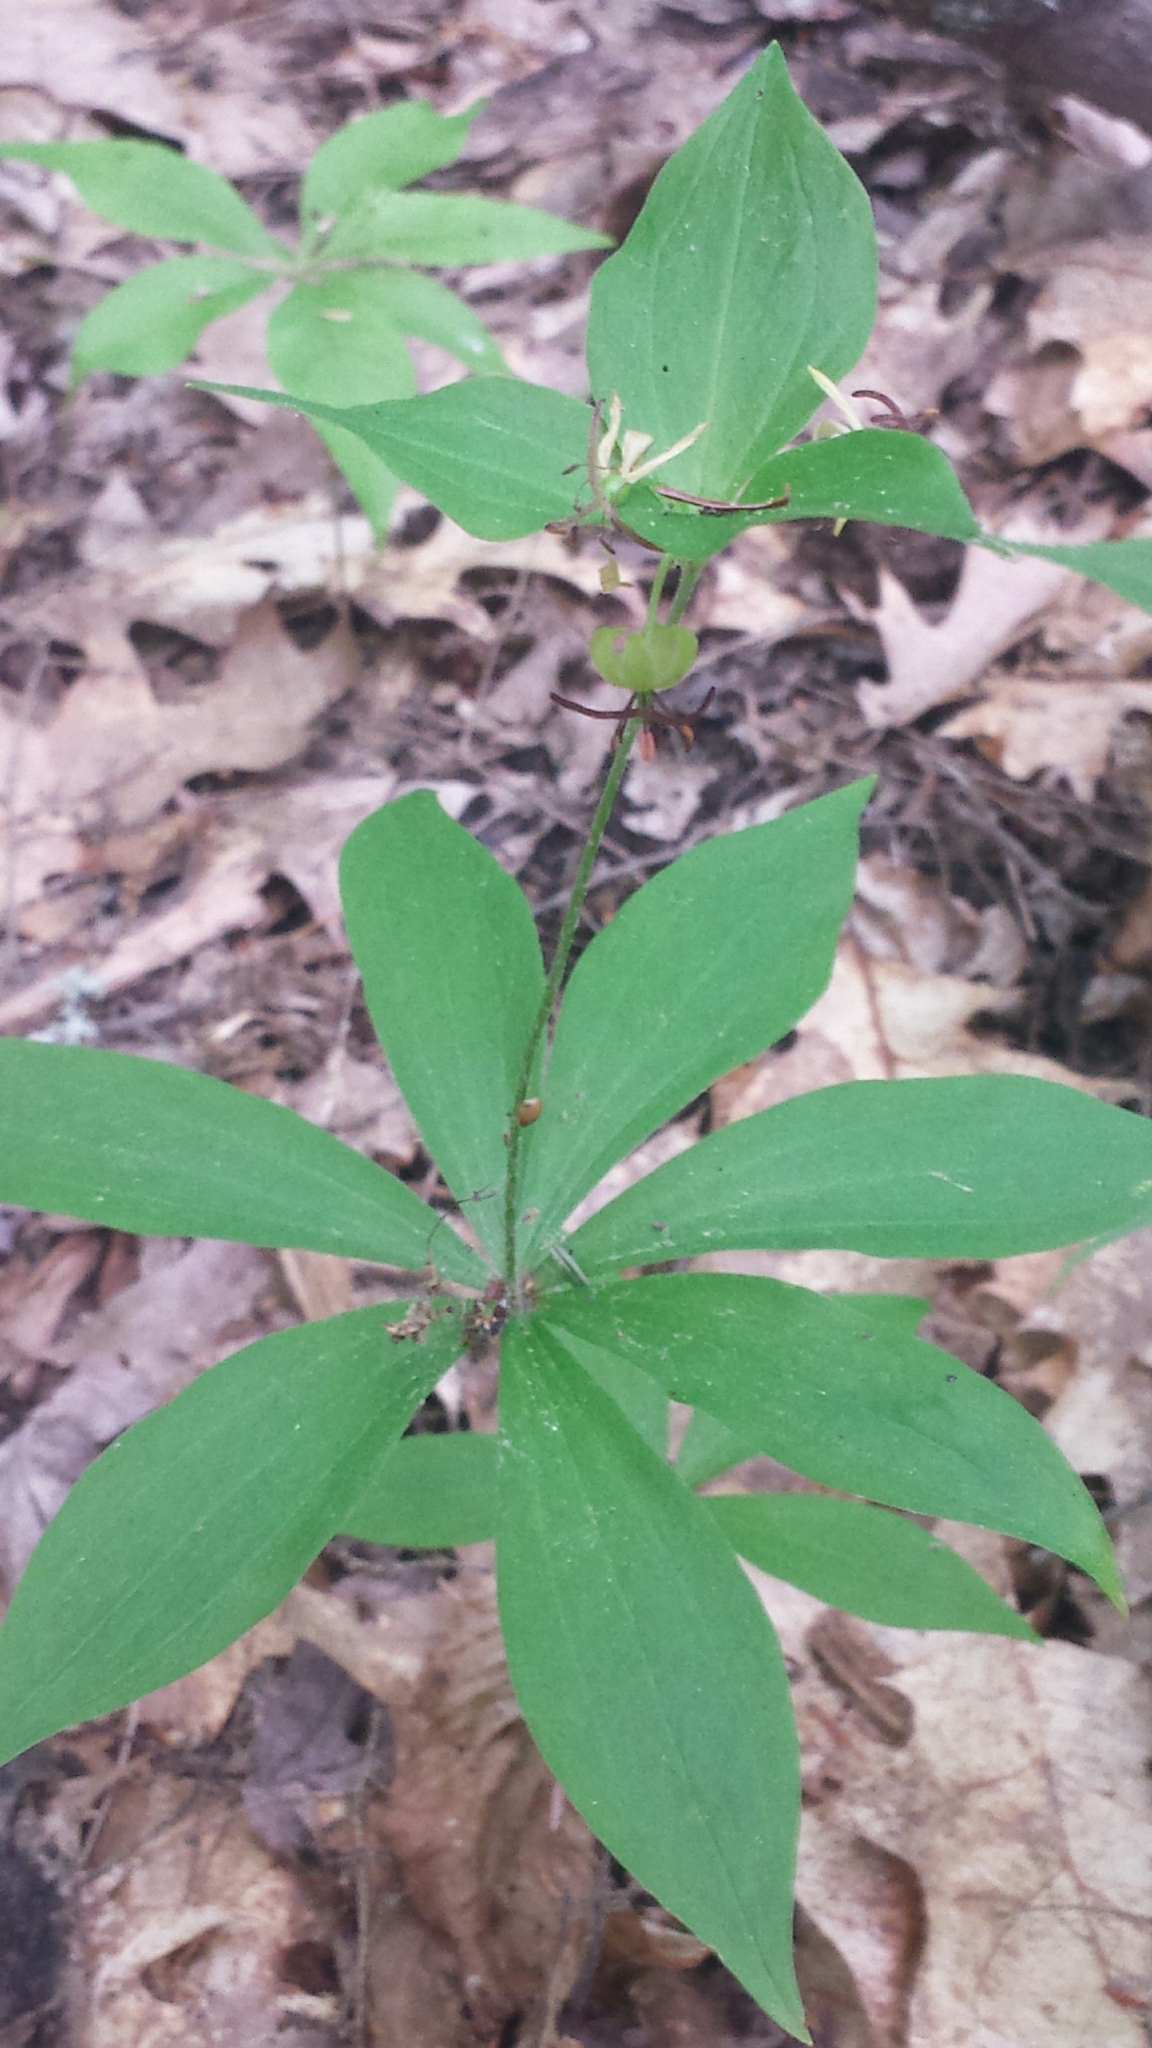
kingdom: Plantae
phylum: Tracheophyta
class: Liliopsida
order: Liliales
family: Liliaceae
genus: Medeola
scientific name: Medeola virginiana
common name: Indian cucumber-root
